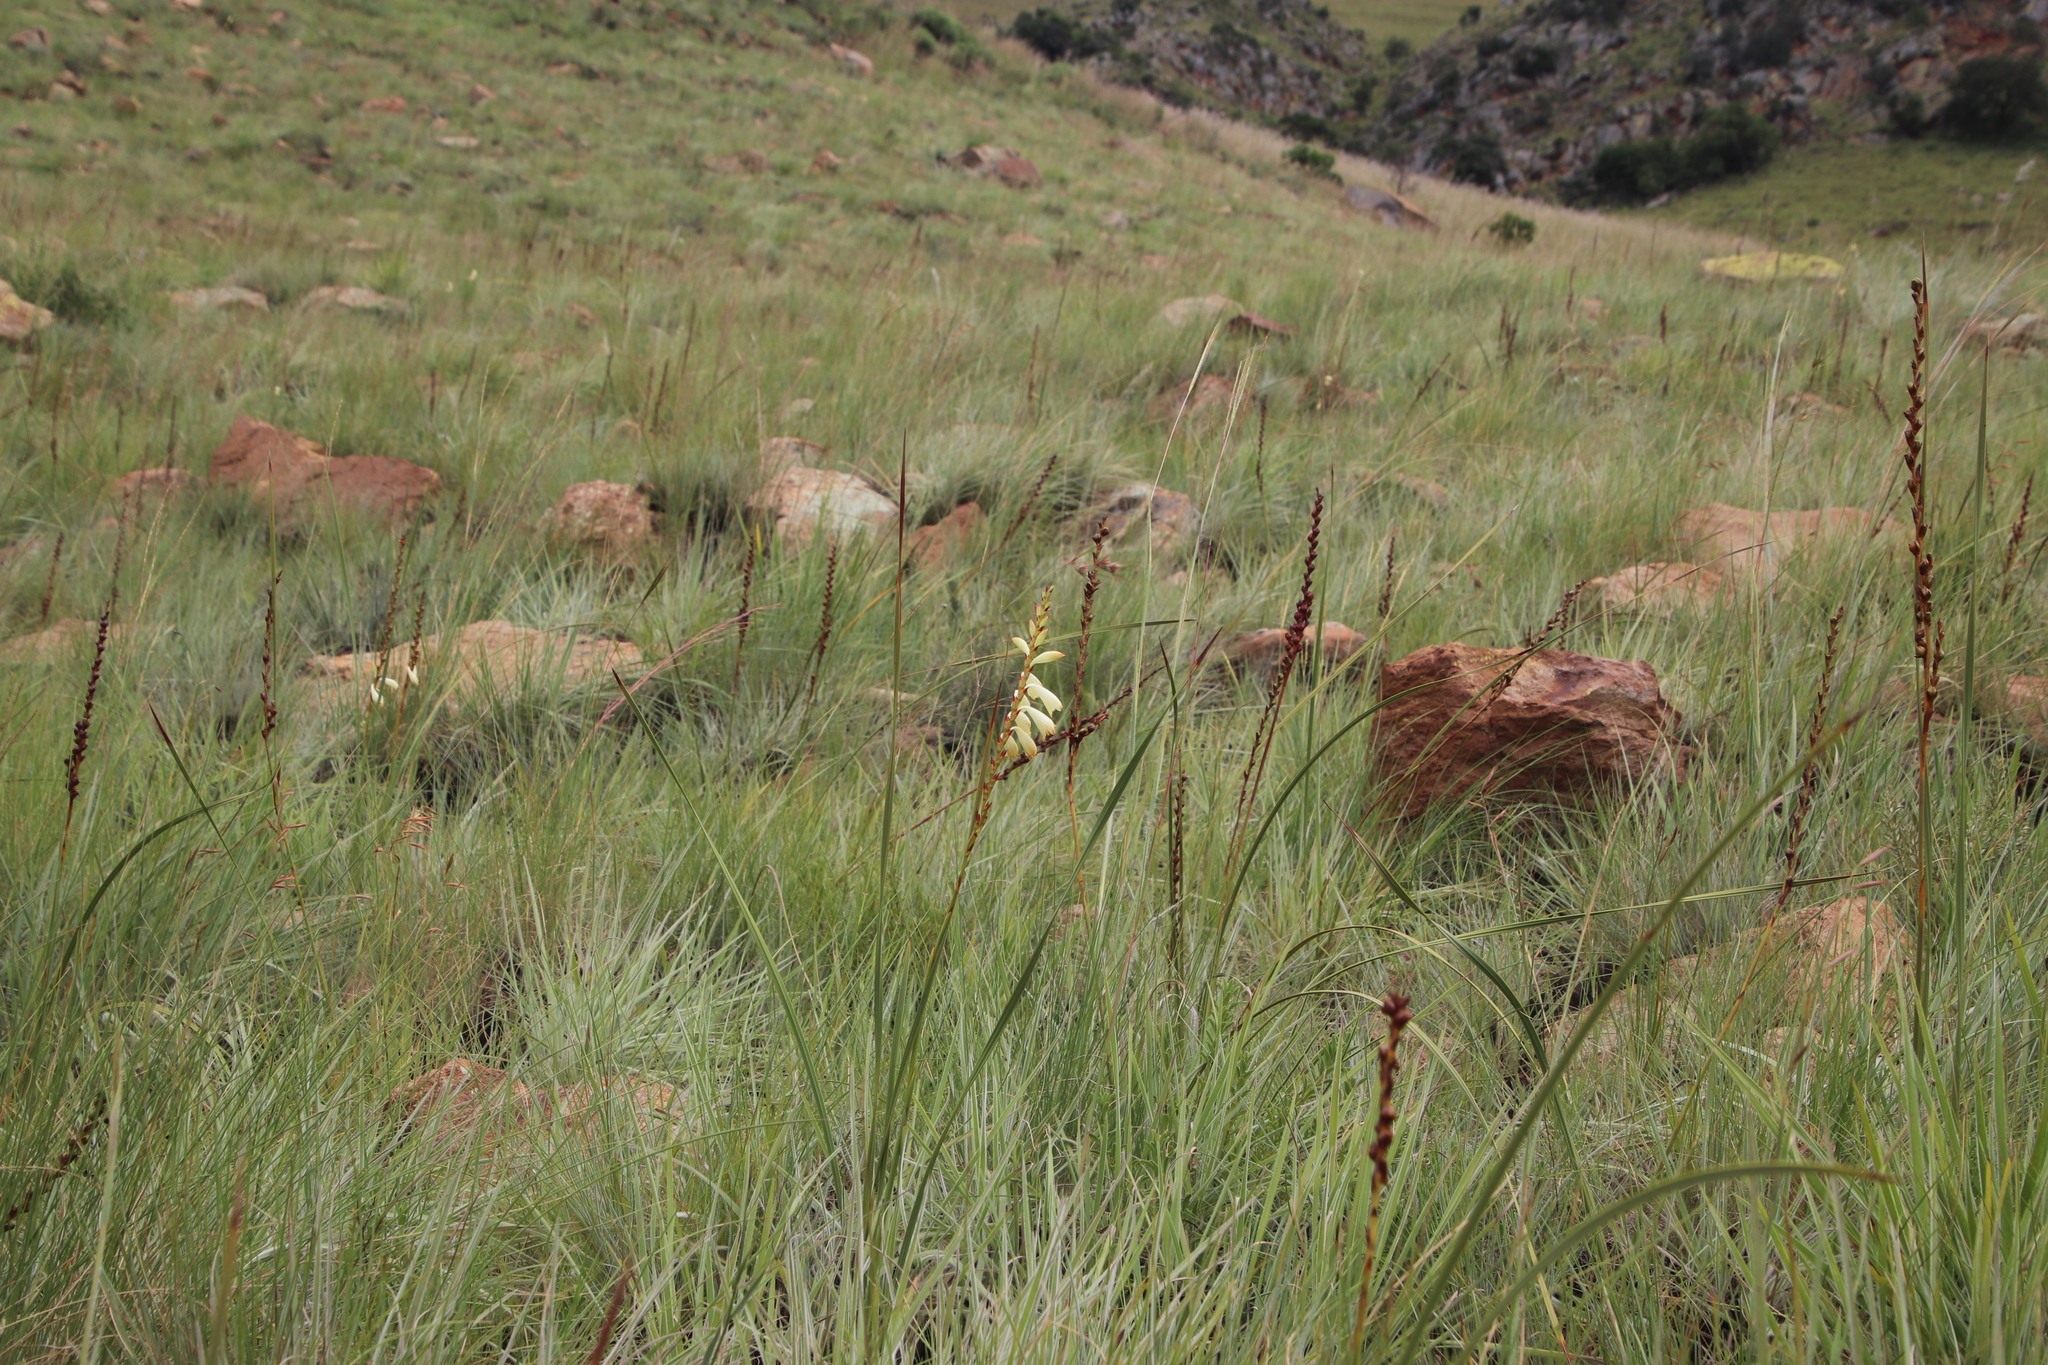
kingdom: Plantae
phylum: Tracheophyta
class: Liliopsida
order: Asparagales
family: Iridaceae
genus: Watsonia
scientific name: Watsonia watsonioides
